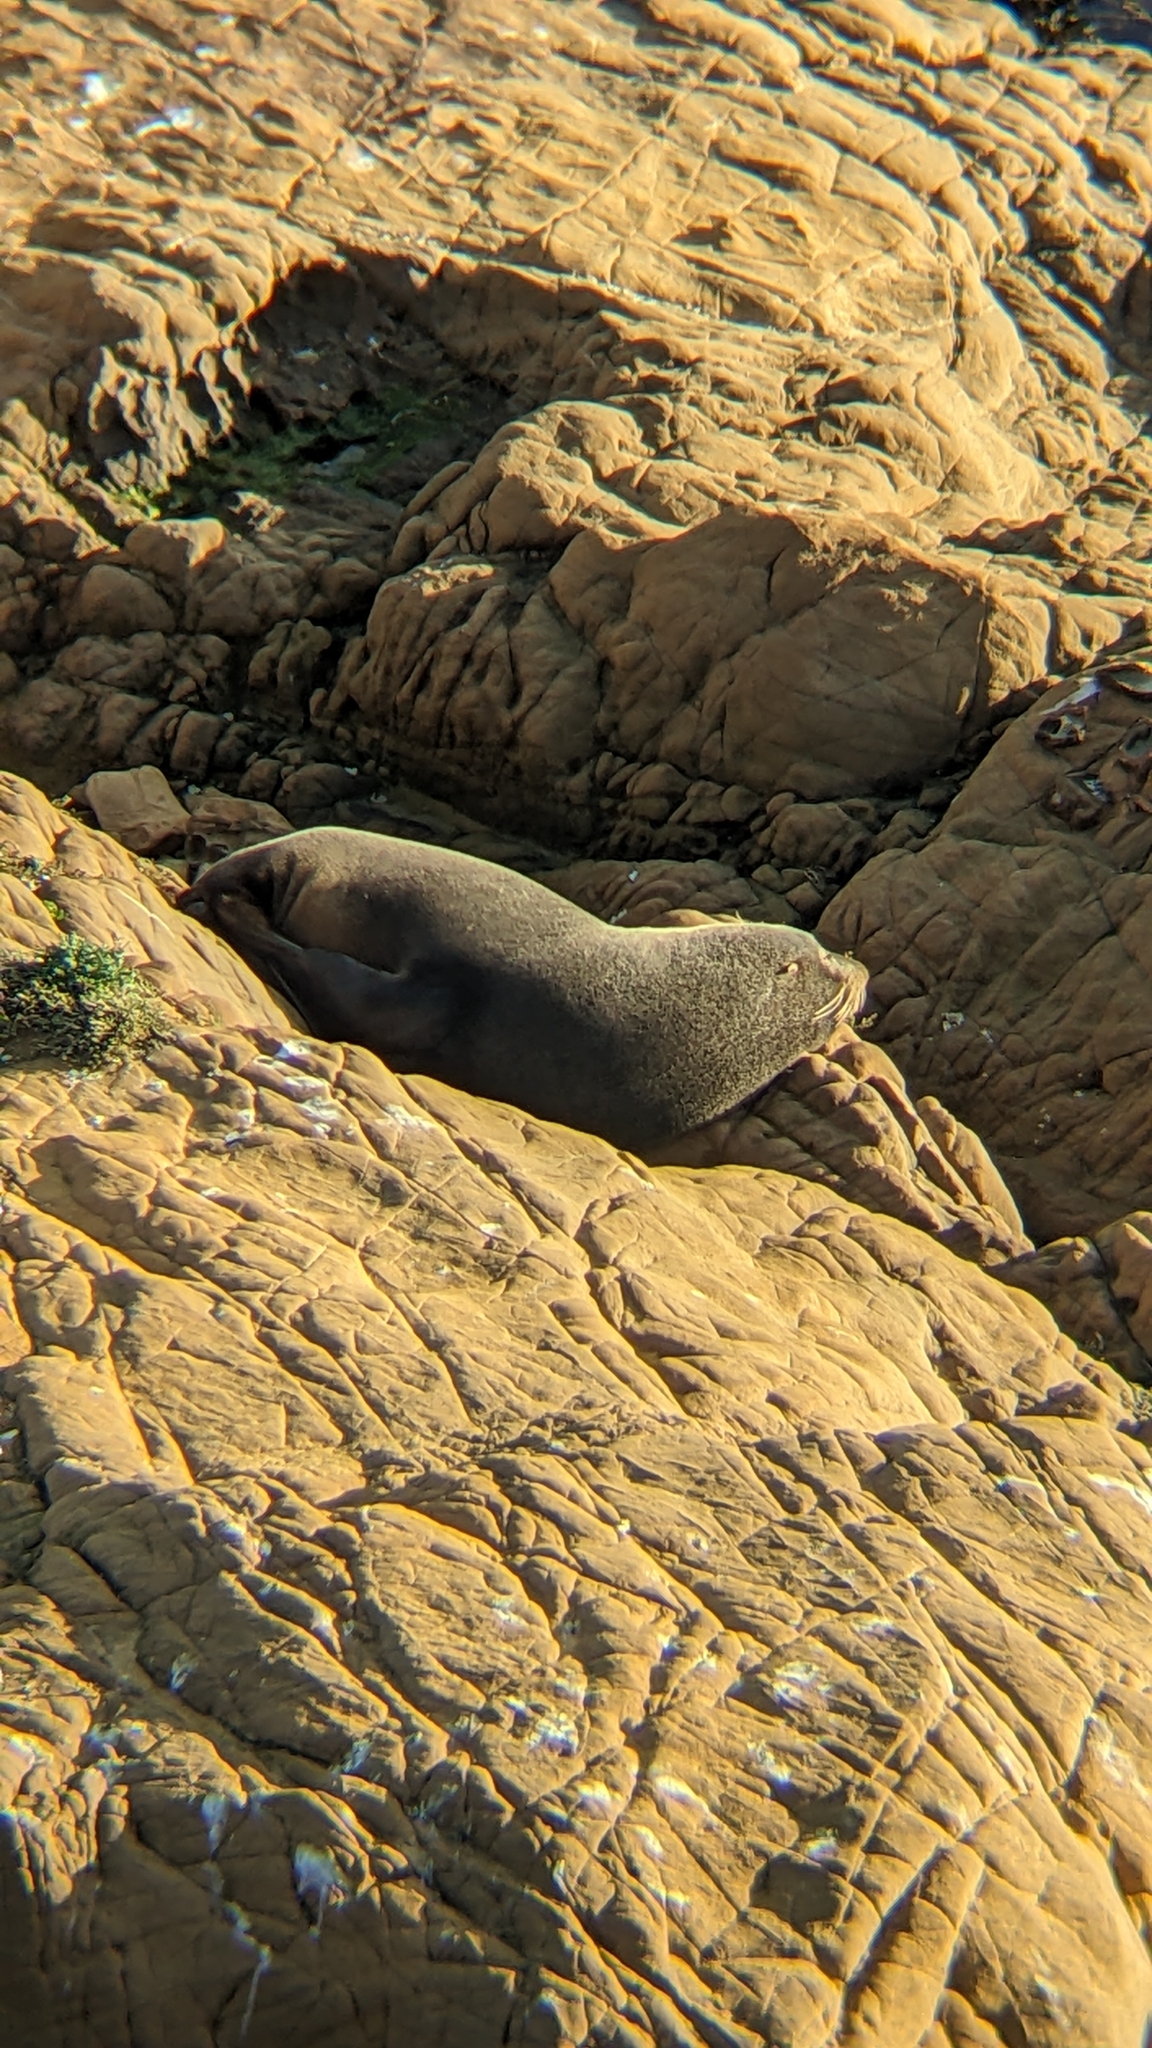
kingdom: Animalia
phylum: Chordata
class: Mammalia
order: Carnivora
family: Otariidae
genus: Arctocephalus
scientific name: Arctocephalus forsteri
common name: New zealand fur seal
